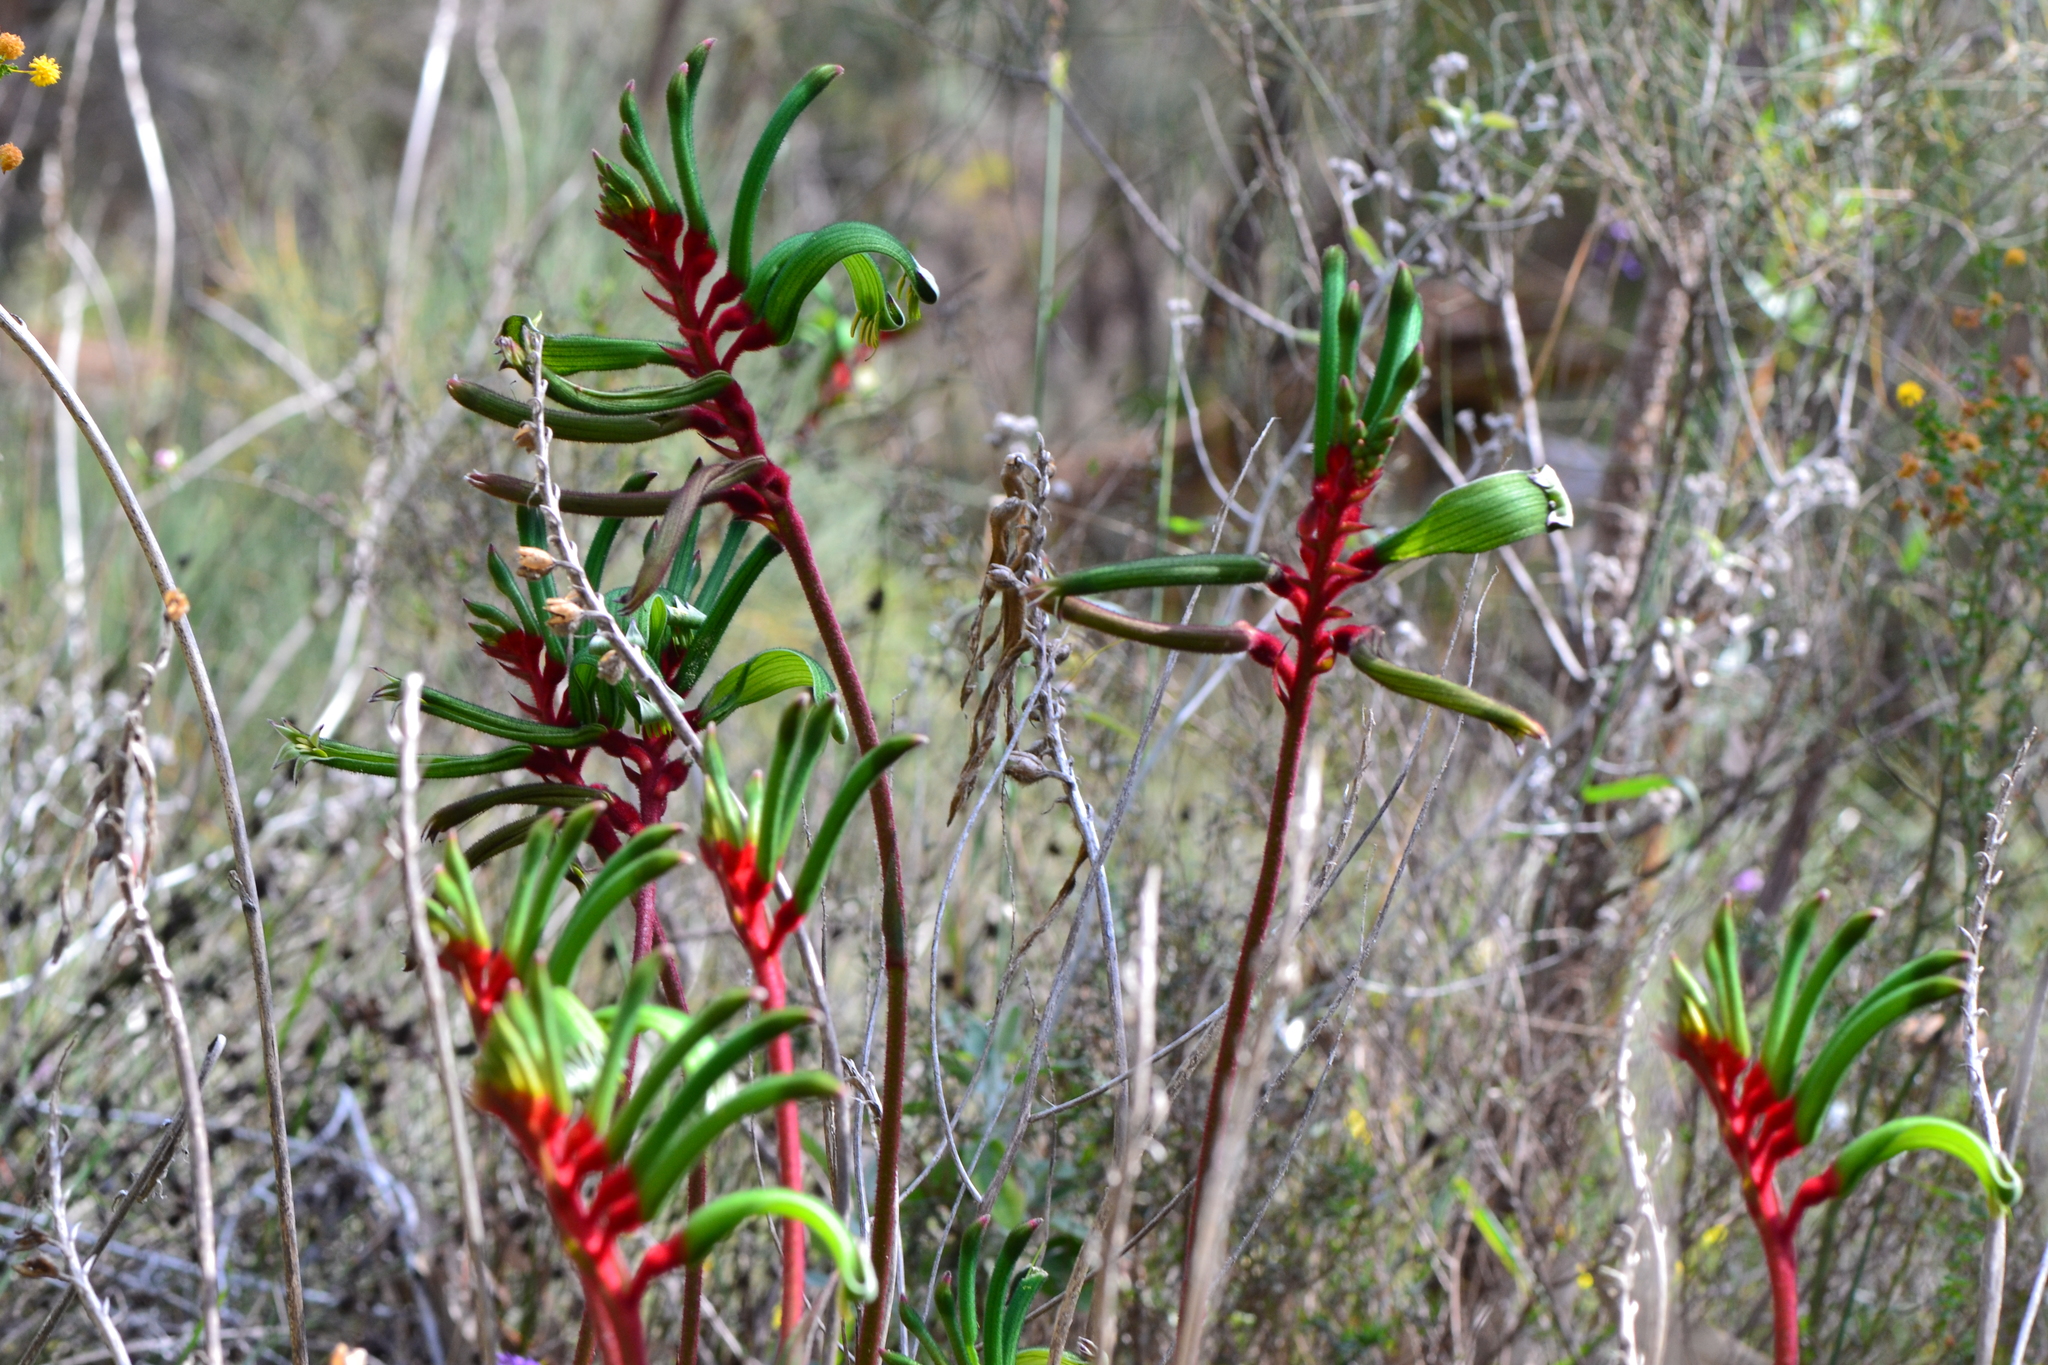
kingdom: Plantae
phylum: Tracheophyta
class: Liliopsida
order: Commelinales
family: Haemodoraceae
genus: Anigozanthos
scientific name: Anigozanthos manglesii
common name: Mangles's kangaroo-paw
